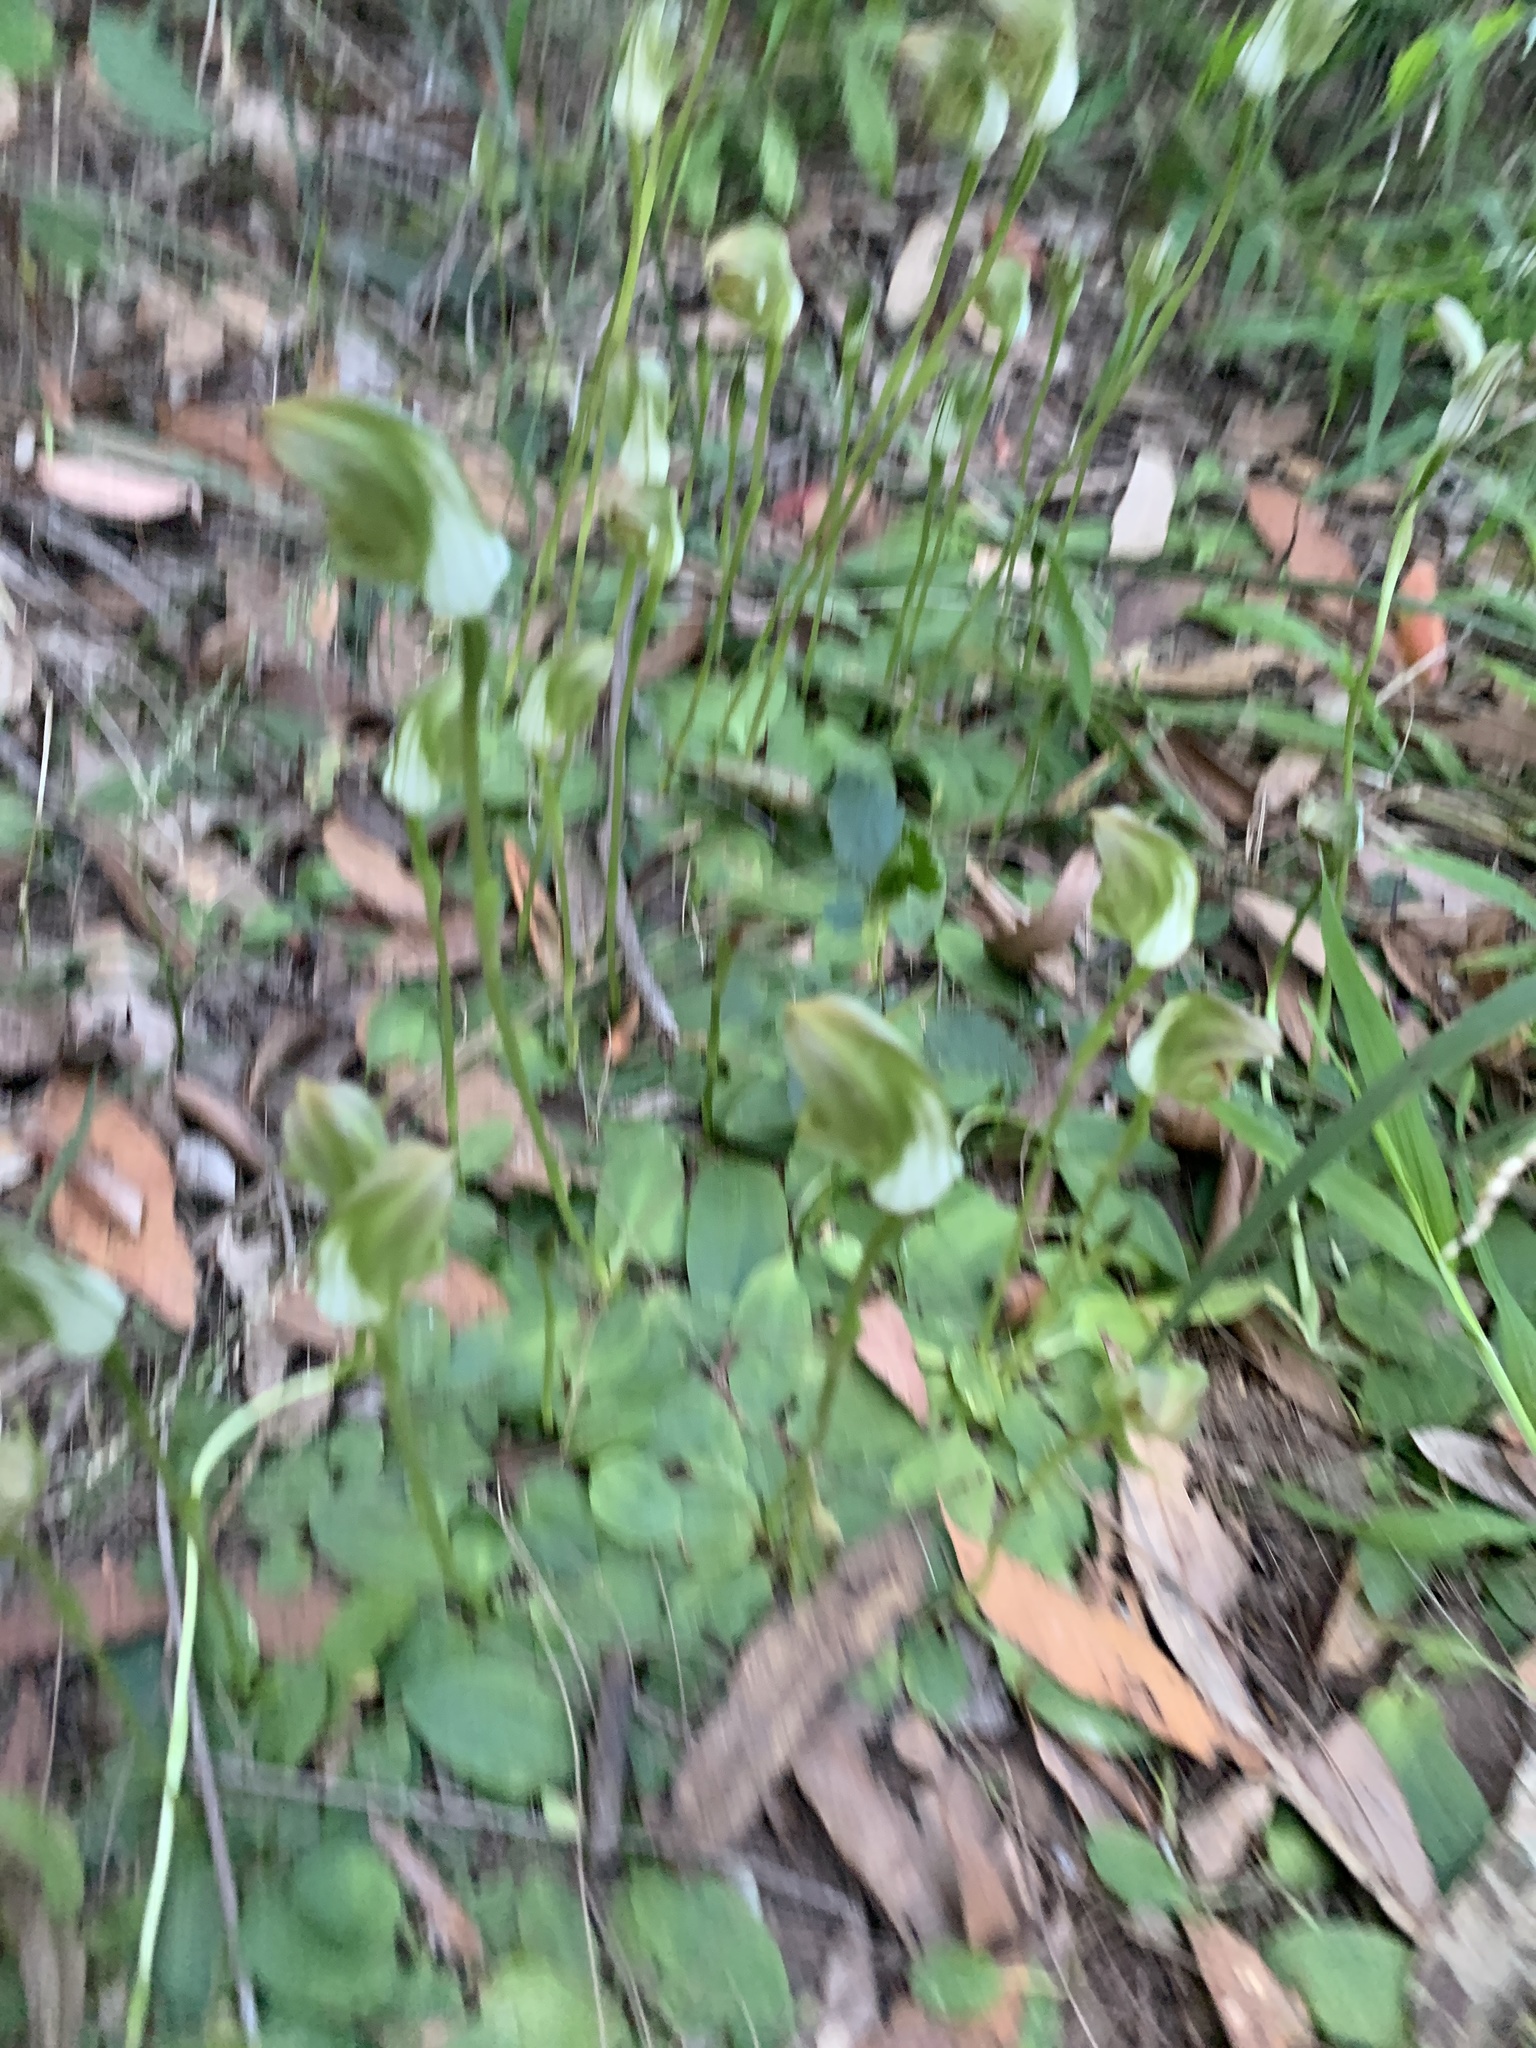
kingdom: Plantae
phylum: Tracheophyta
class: Liliopsida
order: Asparagales
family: Orchidaceae
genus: Pterostylis
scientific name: Pterostylis curta
